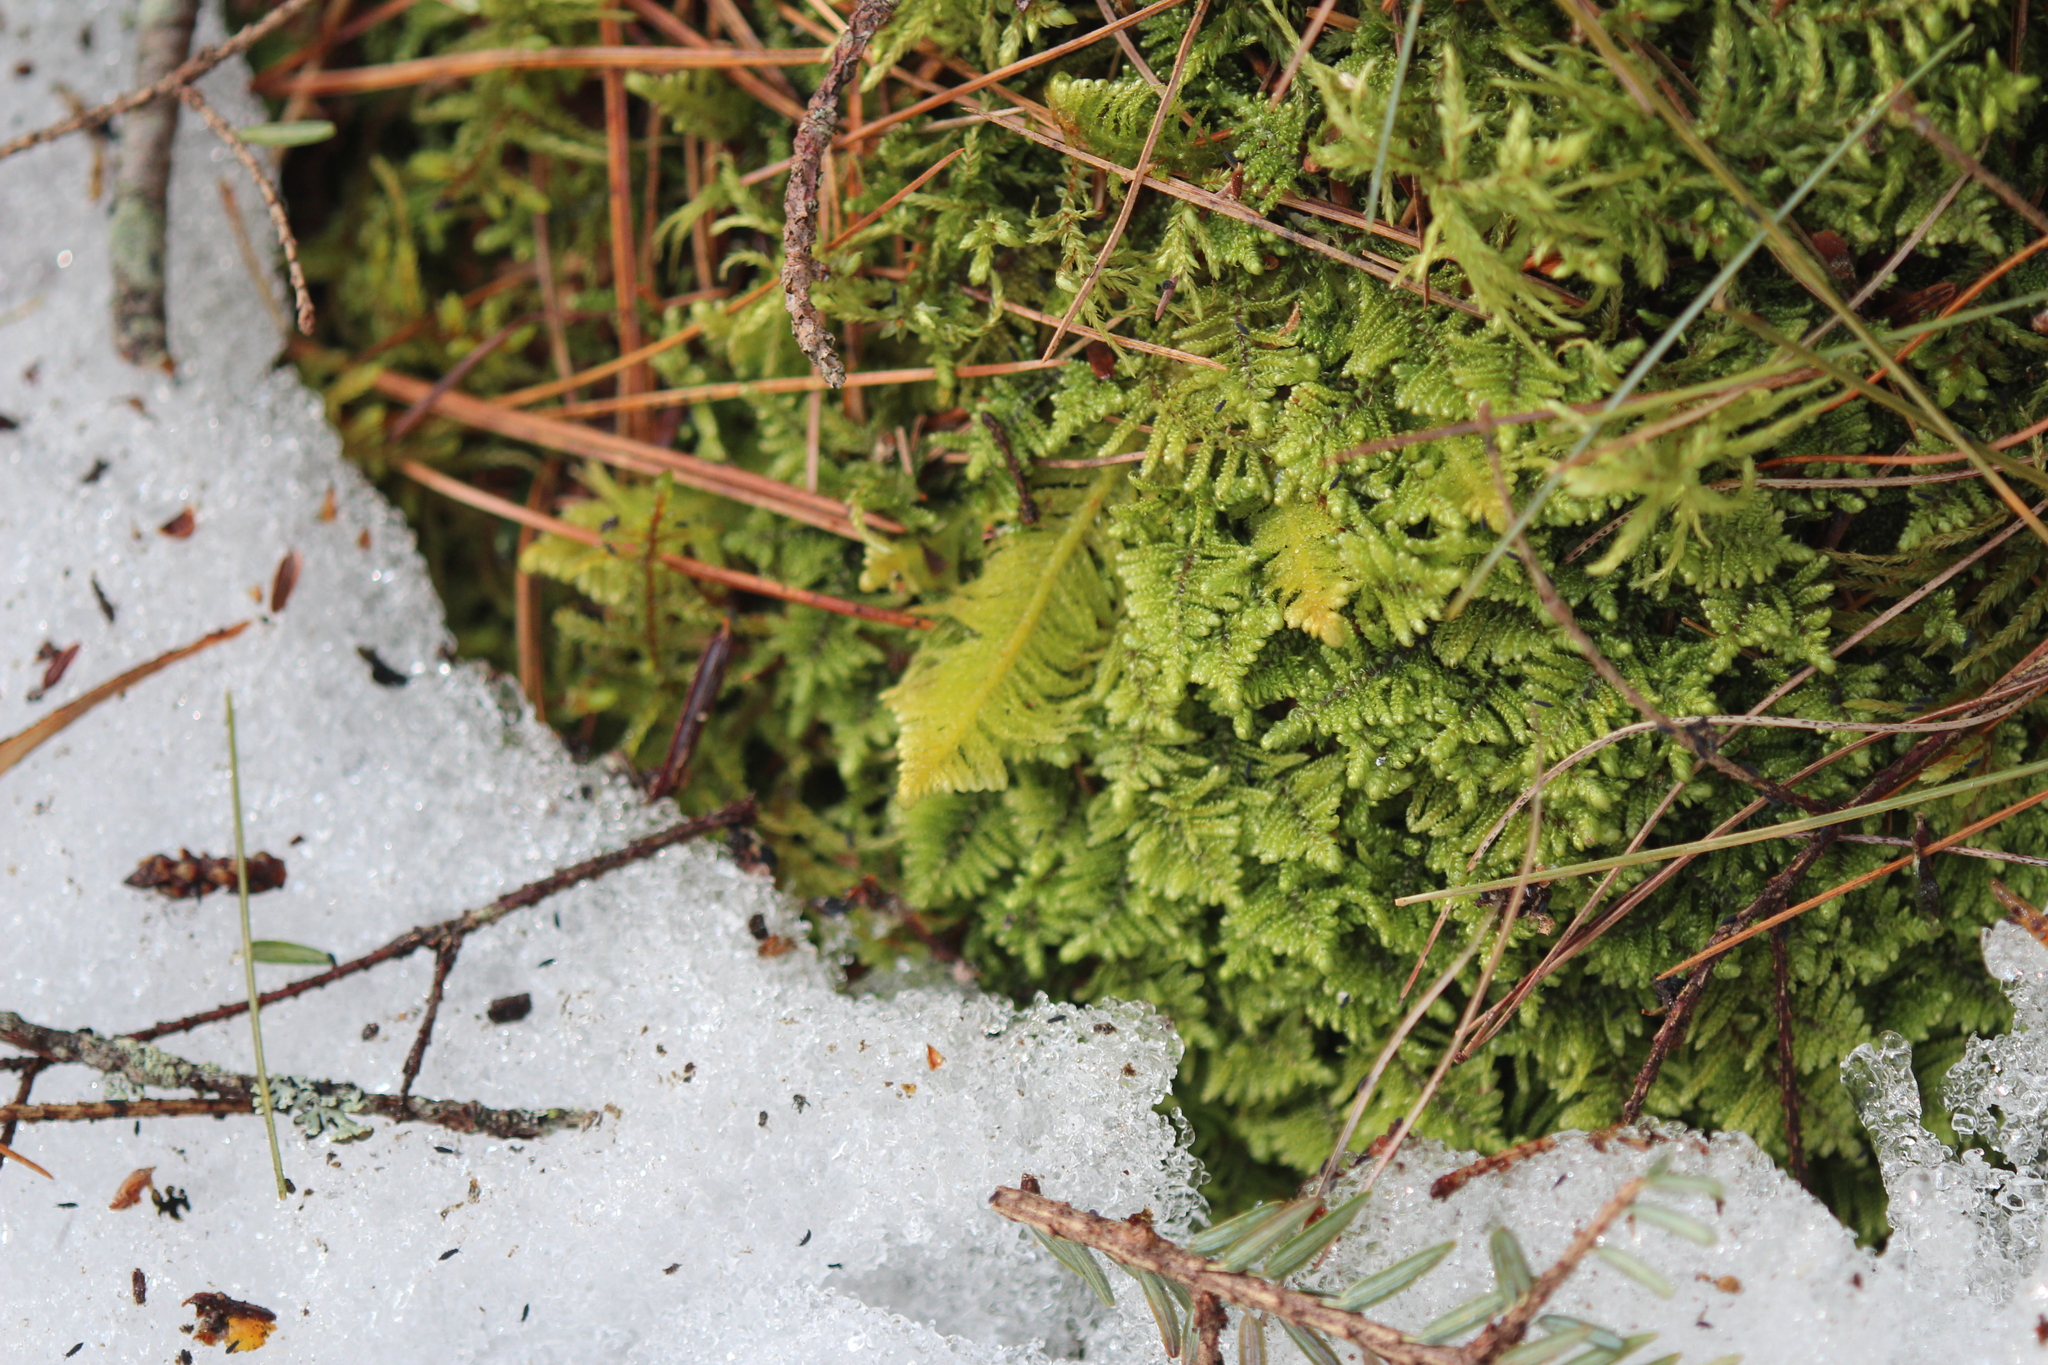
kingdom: Plantae
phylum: Bryophyta
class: Bryopsida
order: Hypnales
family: Pylaisiaceae
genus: Ptilium
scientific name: Ptilium crista-castrensis
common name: Knight's plume moss
